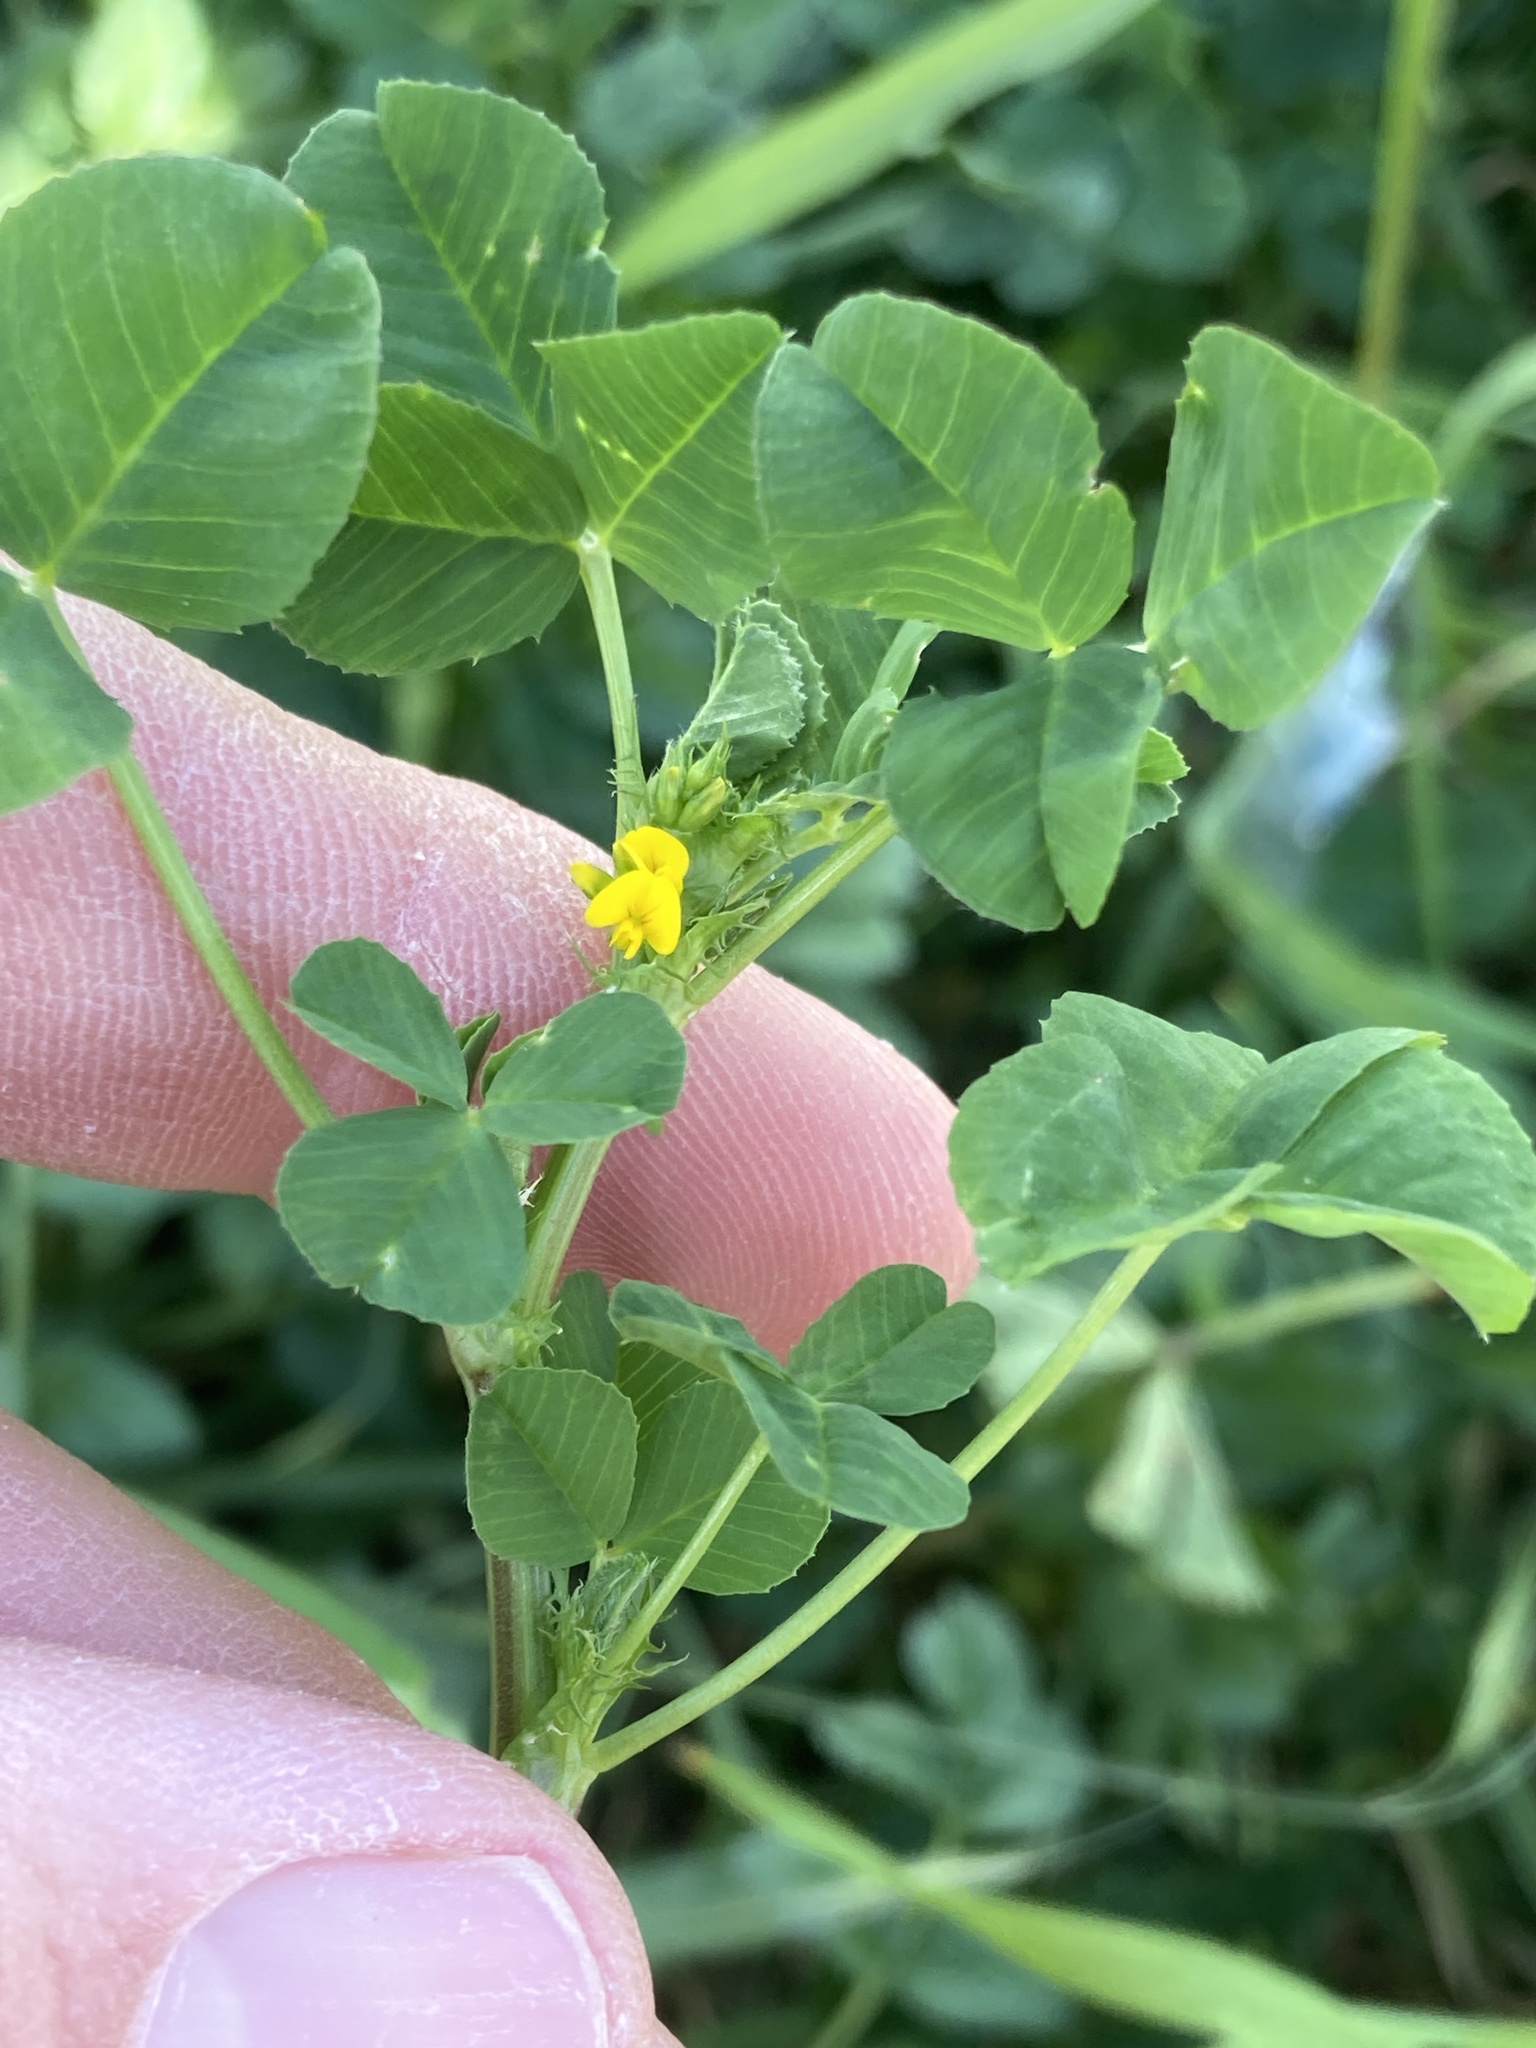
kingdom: Plantae
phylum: Tracheophyta
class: Magnoliopsida
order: Fabales
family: Fabaceae
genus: Medicago
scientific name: Medicago polymorpha
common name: Burclover
